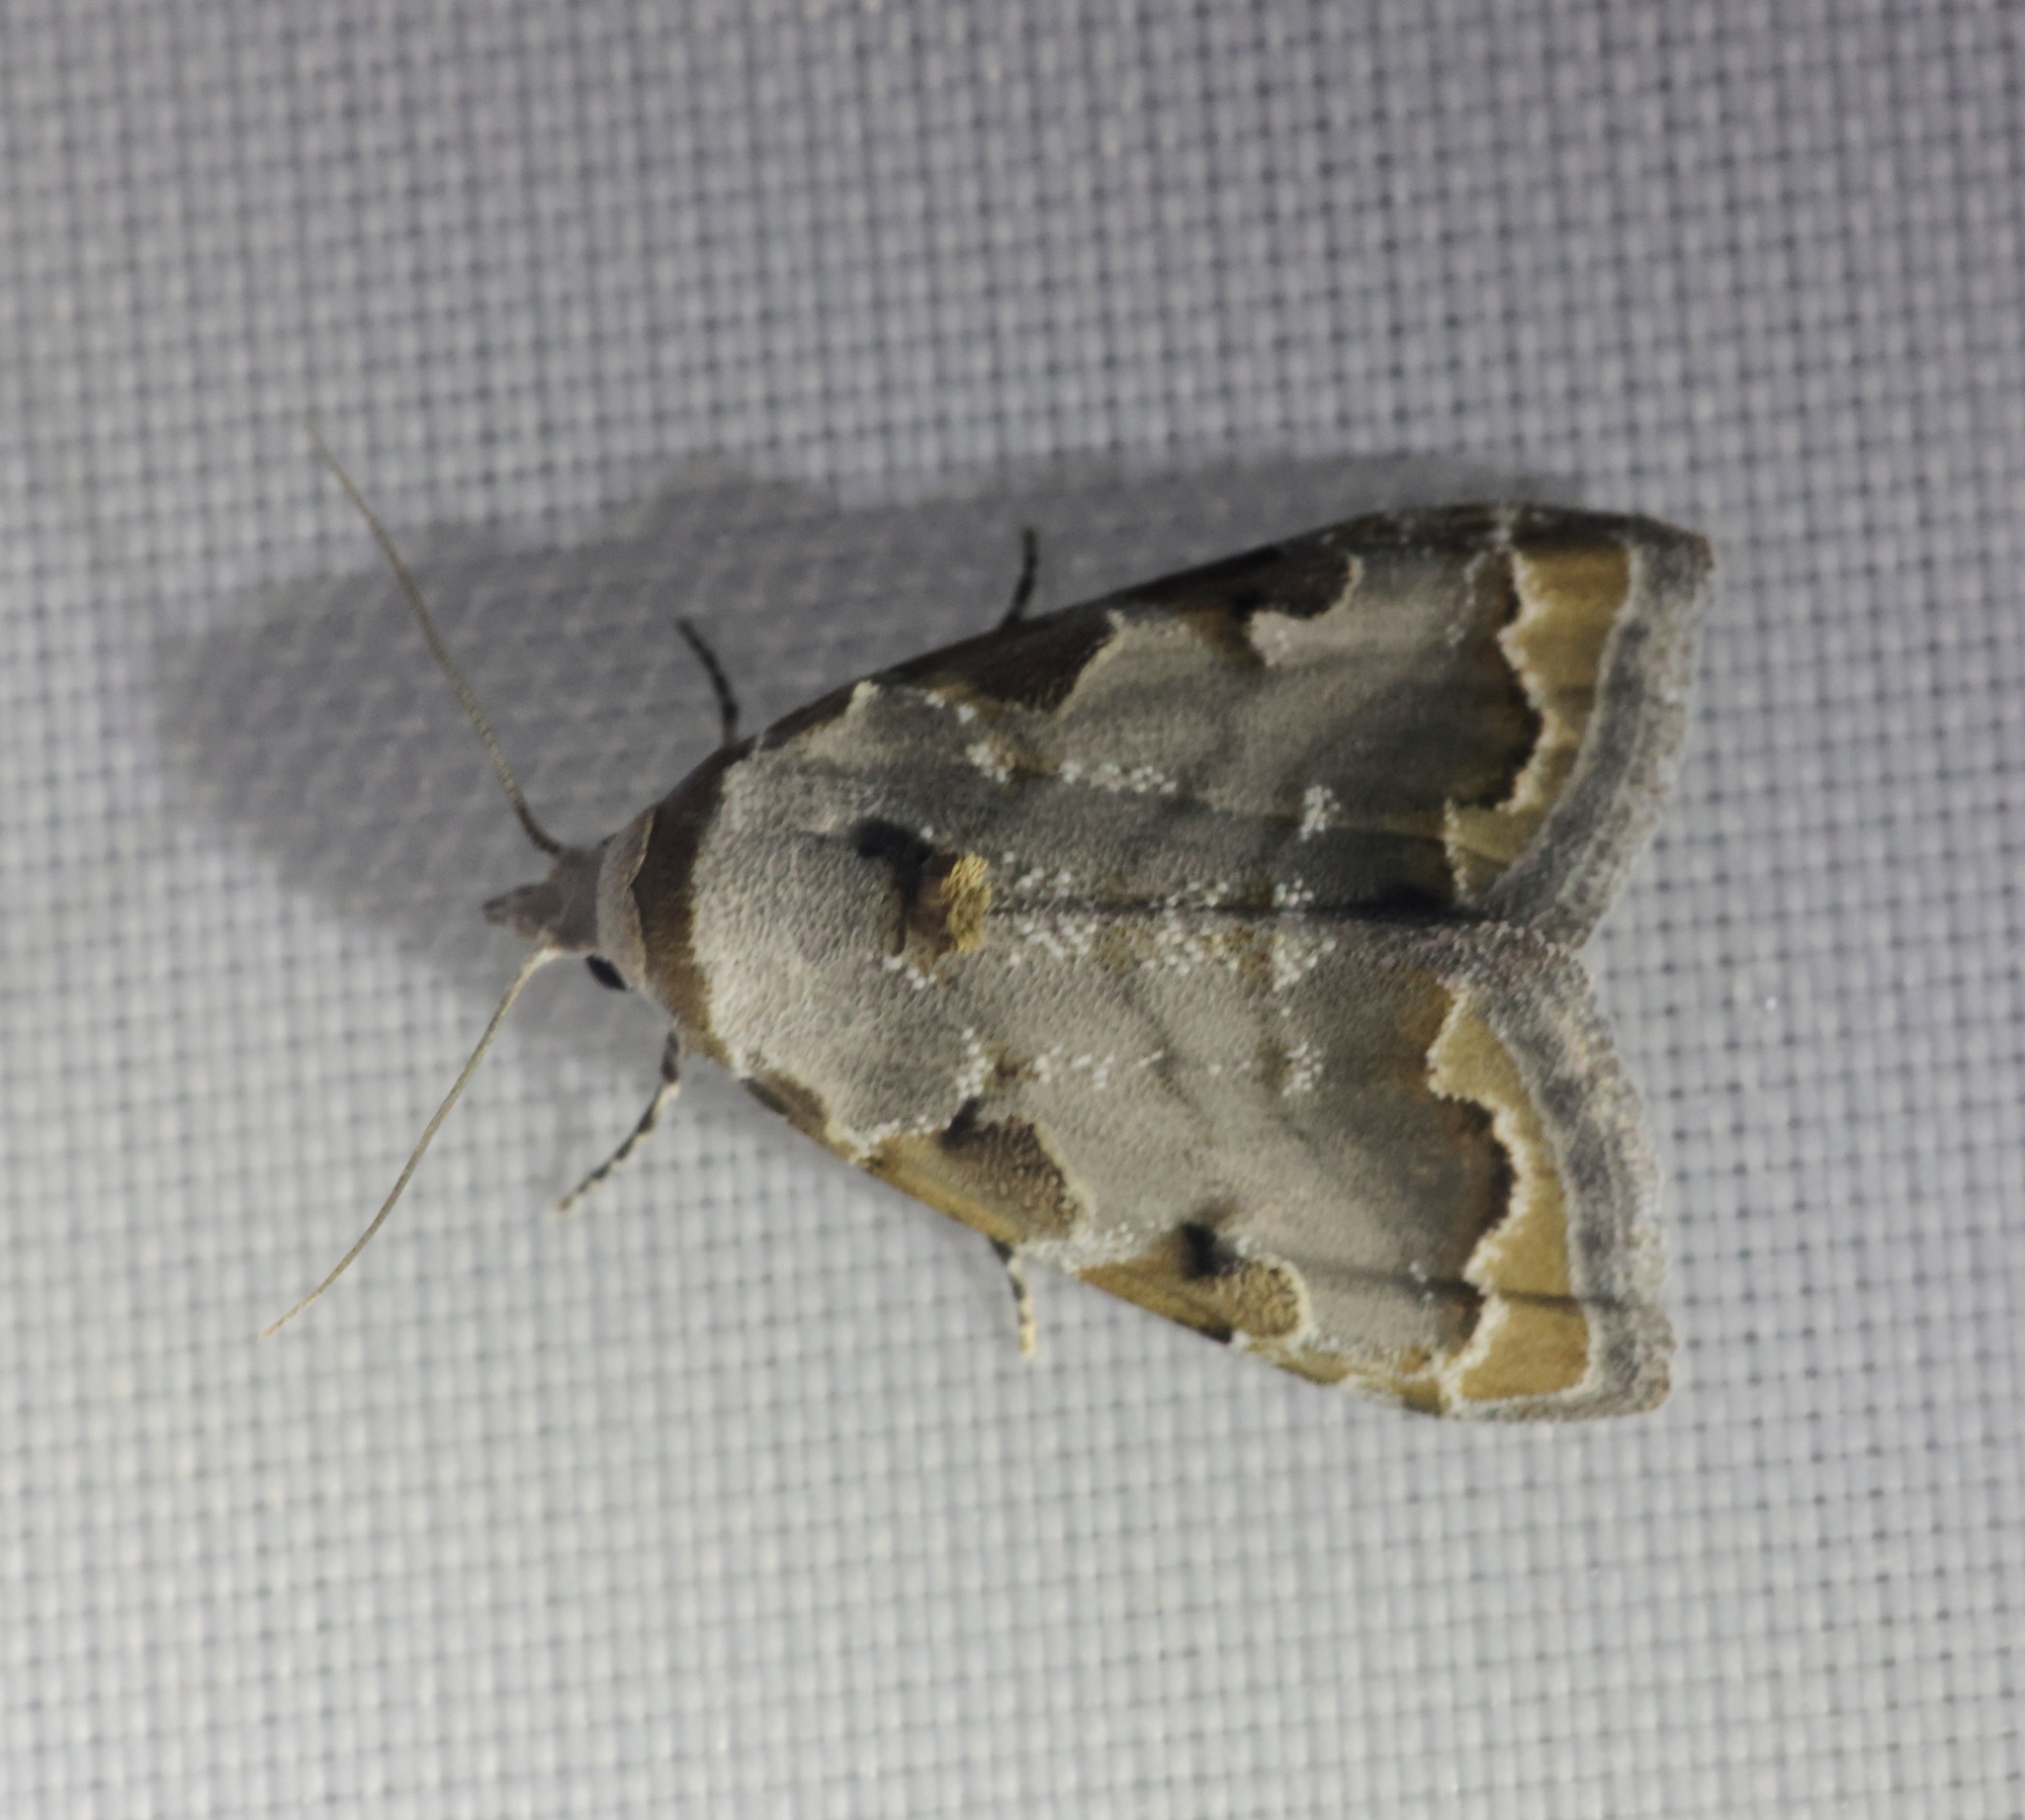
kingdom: Animalia
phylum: Arthropoda
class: Insecta
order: Lepidoptera
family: Nolidae
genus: Nola
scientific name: Nola marginata
